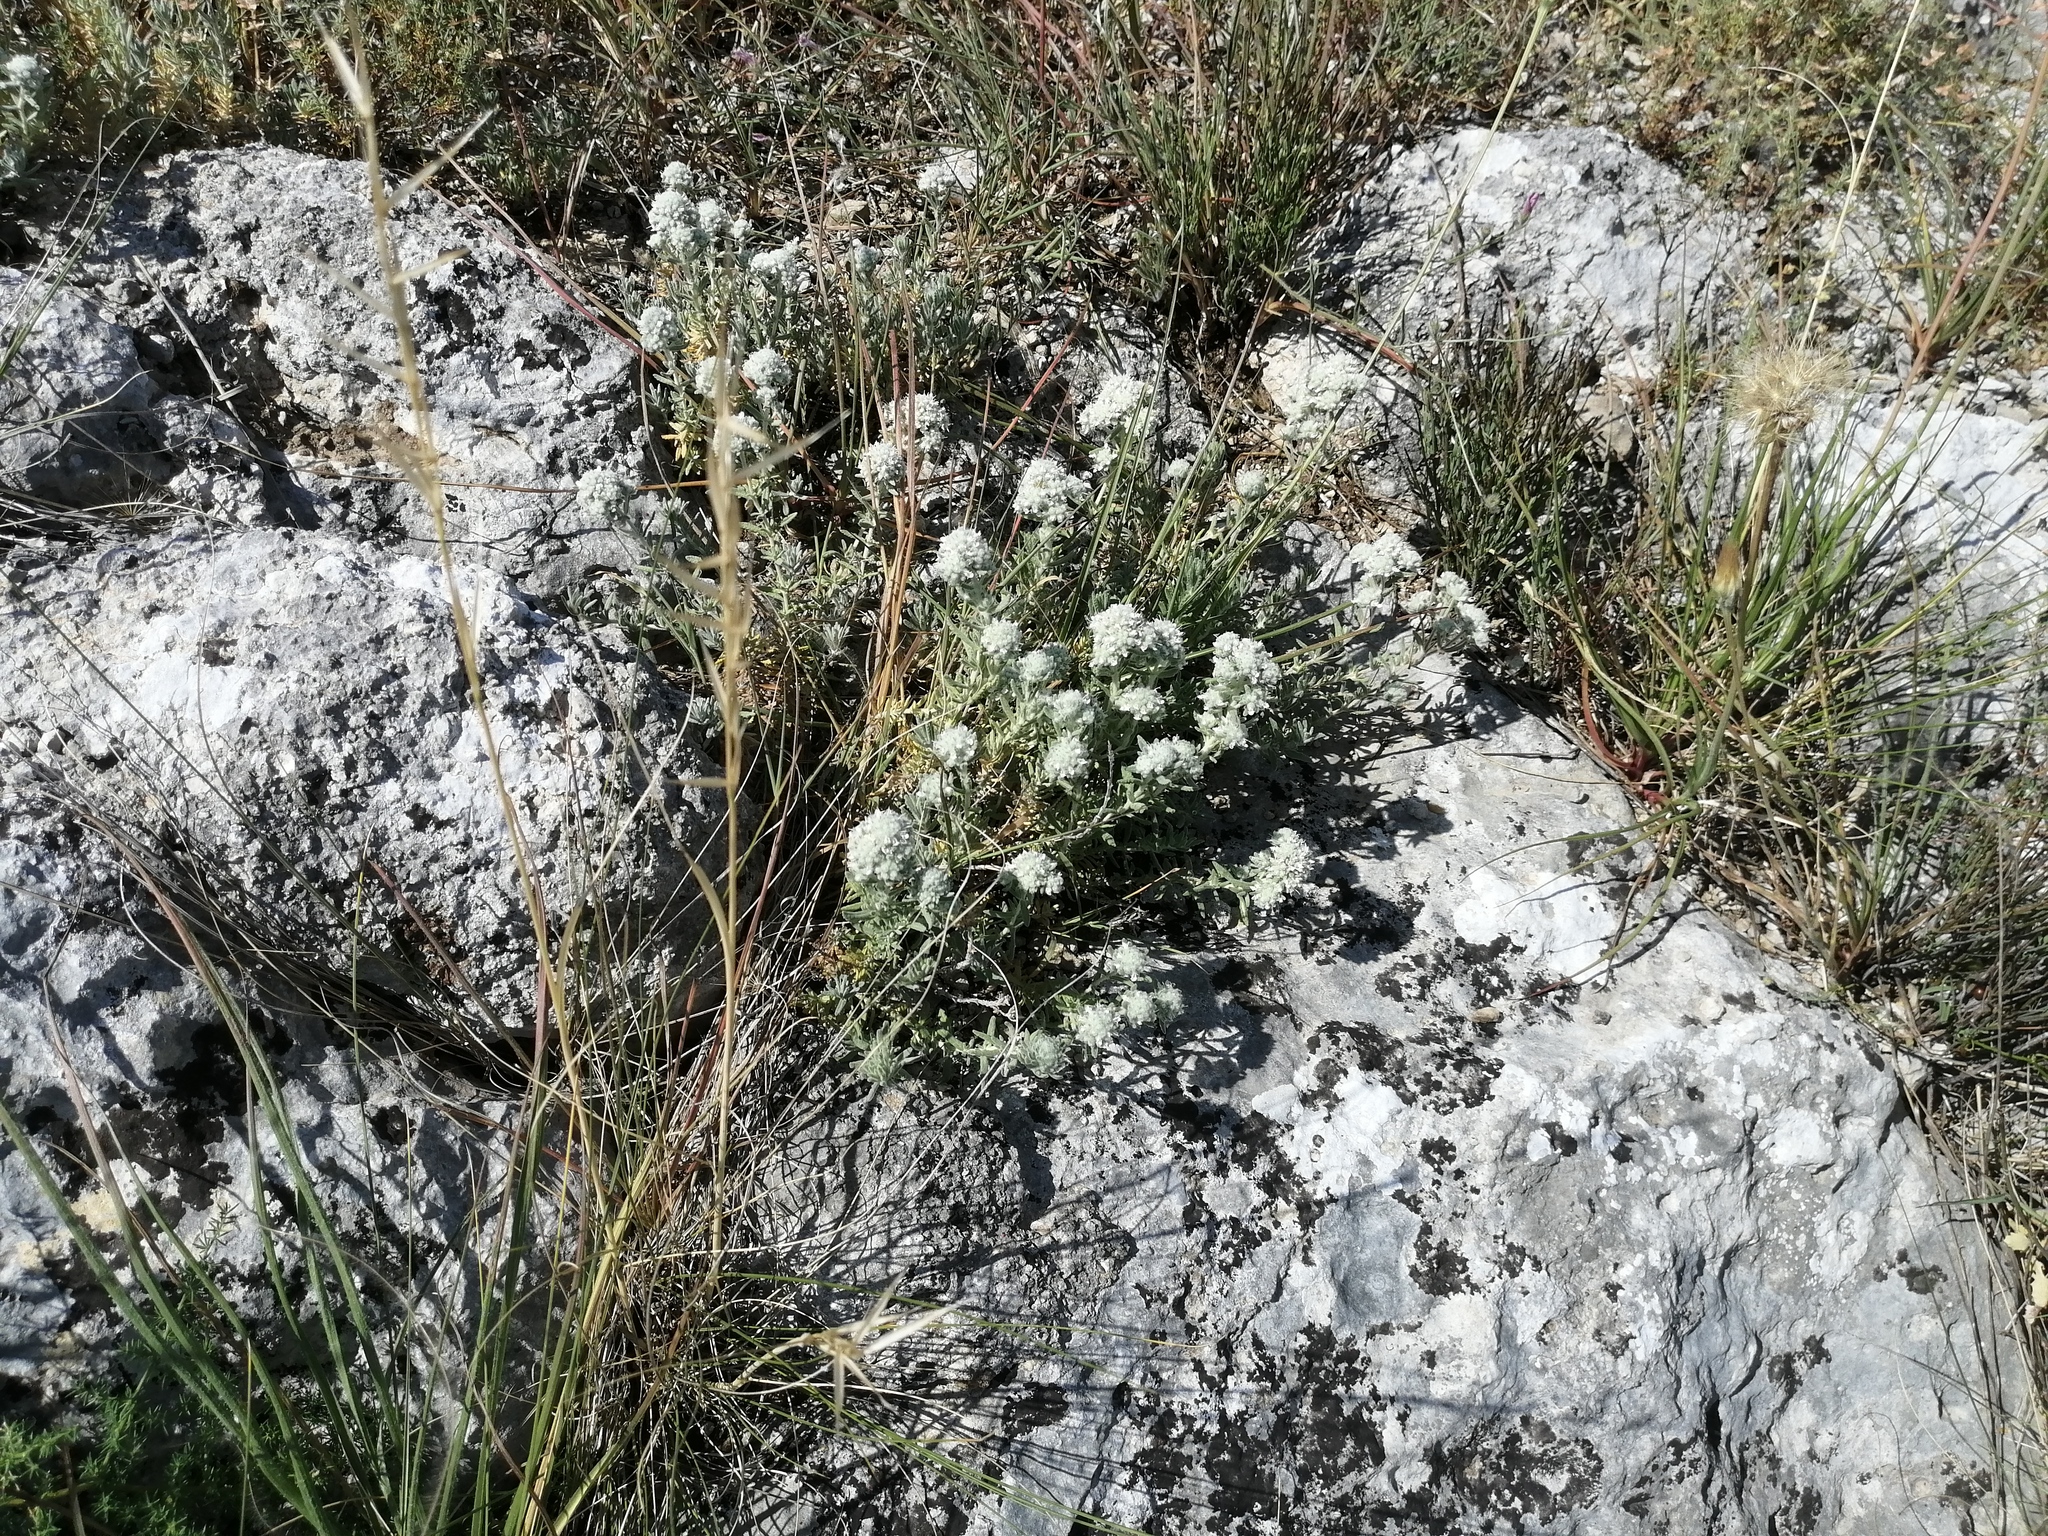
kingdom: Plantae
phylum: Tracheophyta
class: Magnoliopsida
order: Lamiales
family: Lamiaceae
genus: Teucrium
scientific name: Teucrium capitatum
